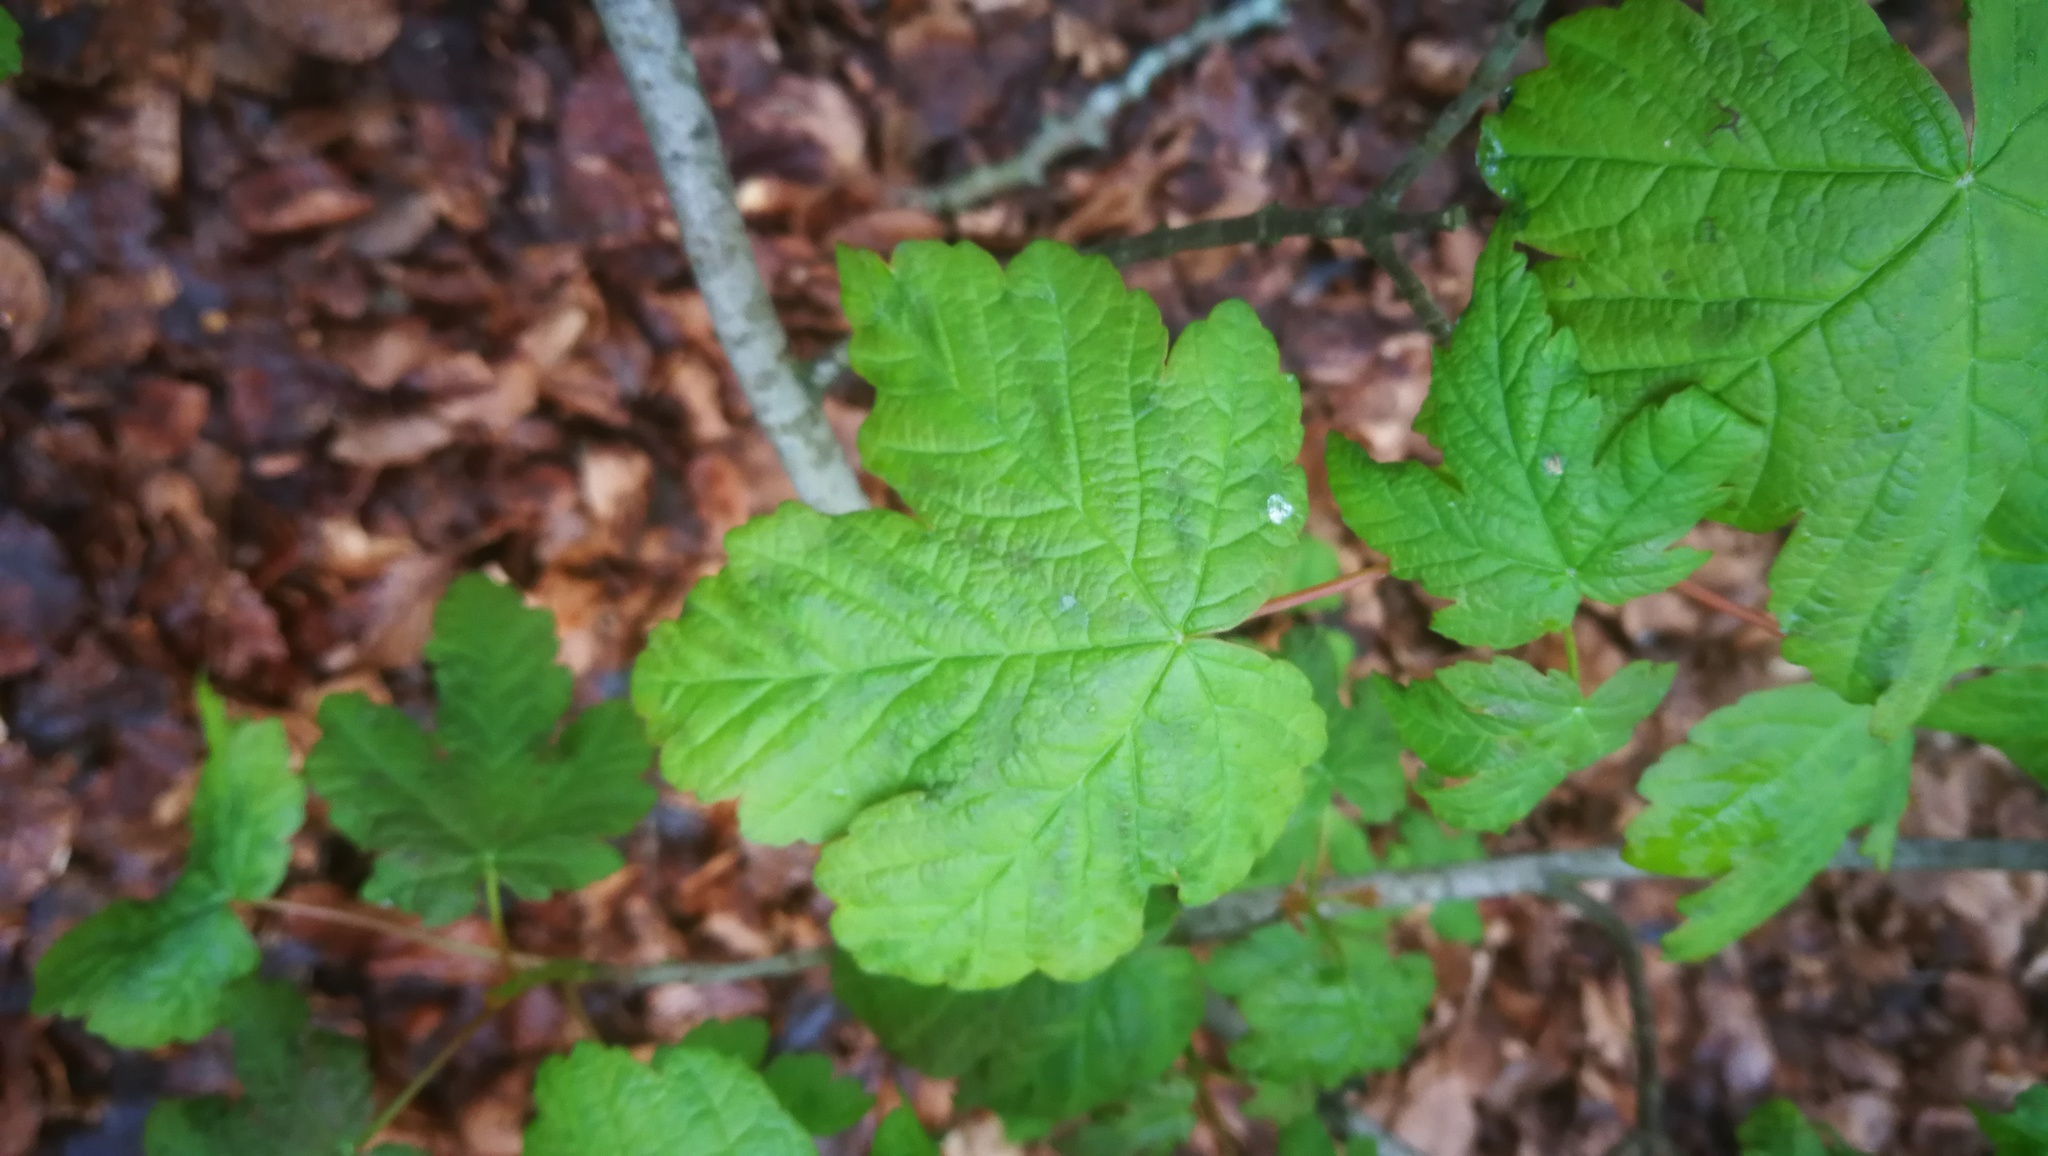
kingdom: Plantae
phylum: Tracheophyta
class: Magnoliopsida
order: Sapindales
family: Sapindaceae
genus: Acer
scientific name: Acer pseudoplatanus
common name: Sycamore
